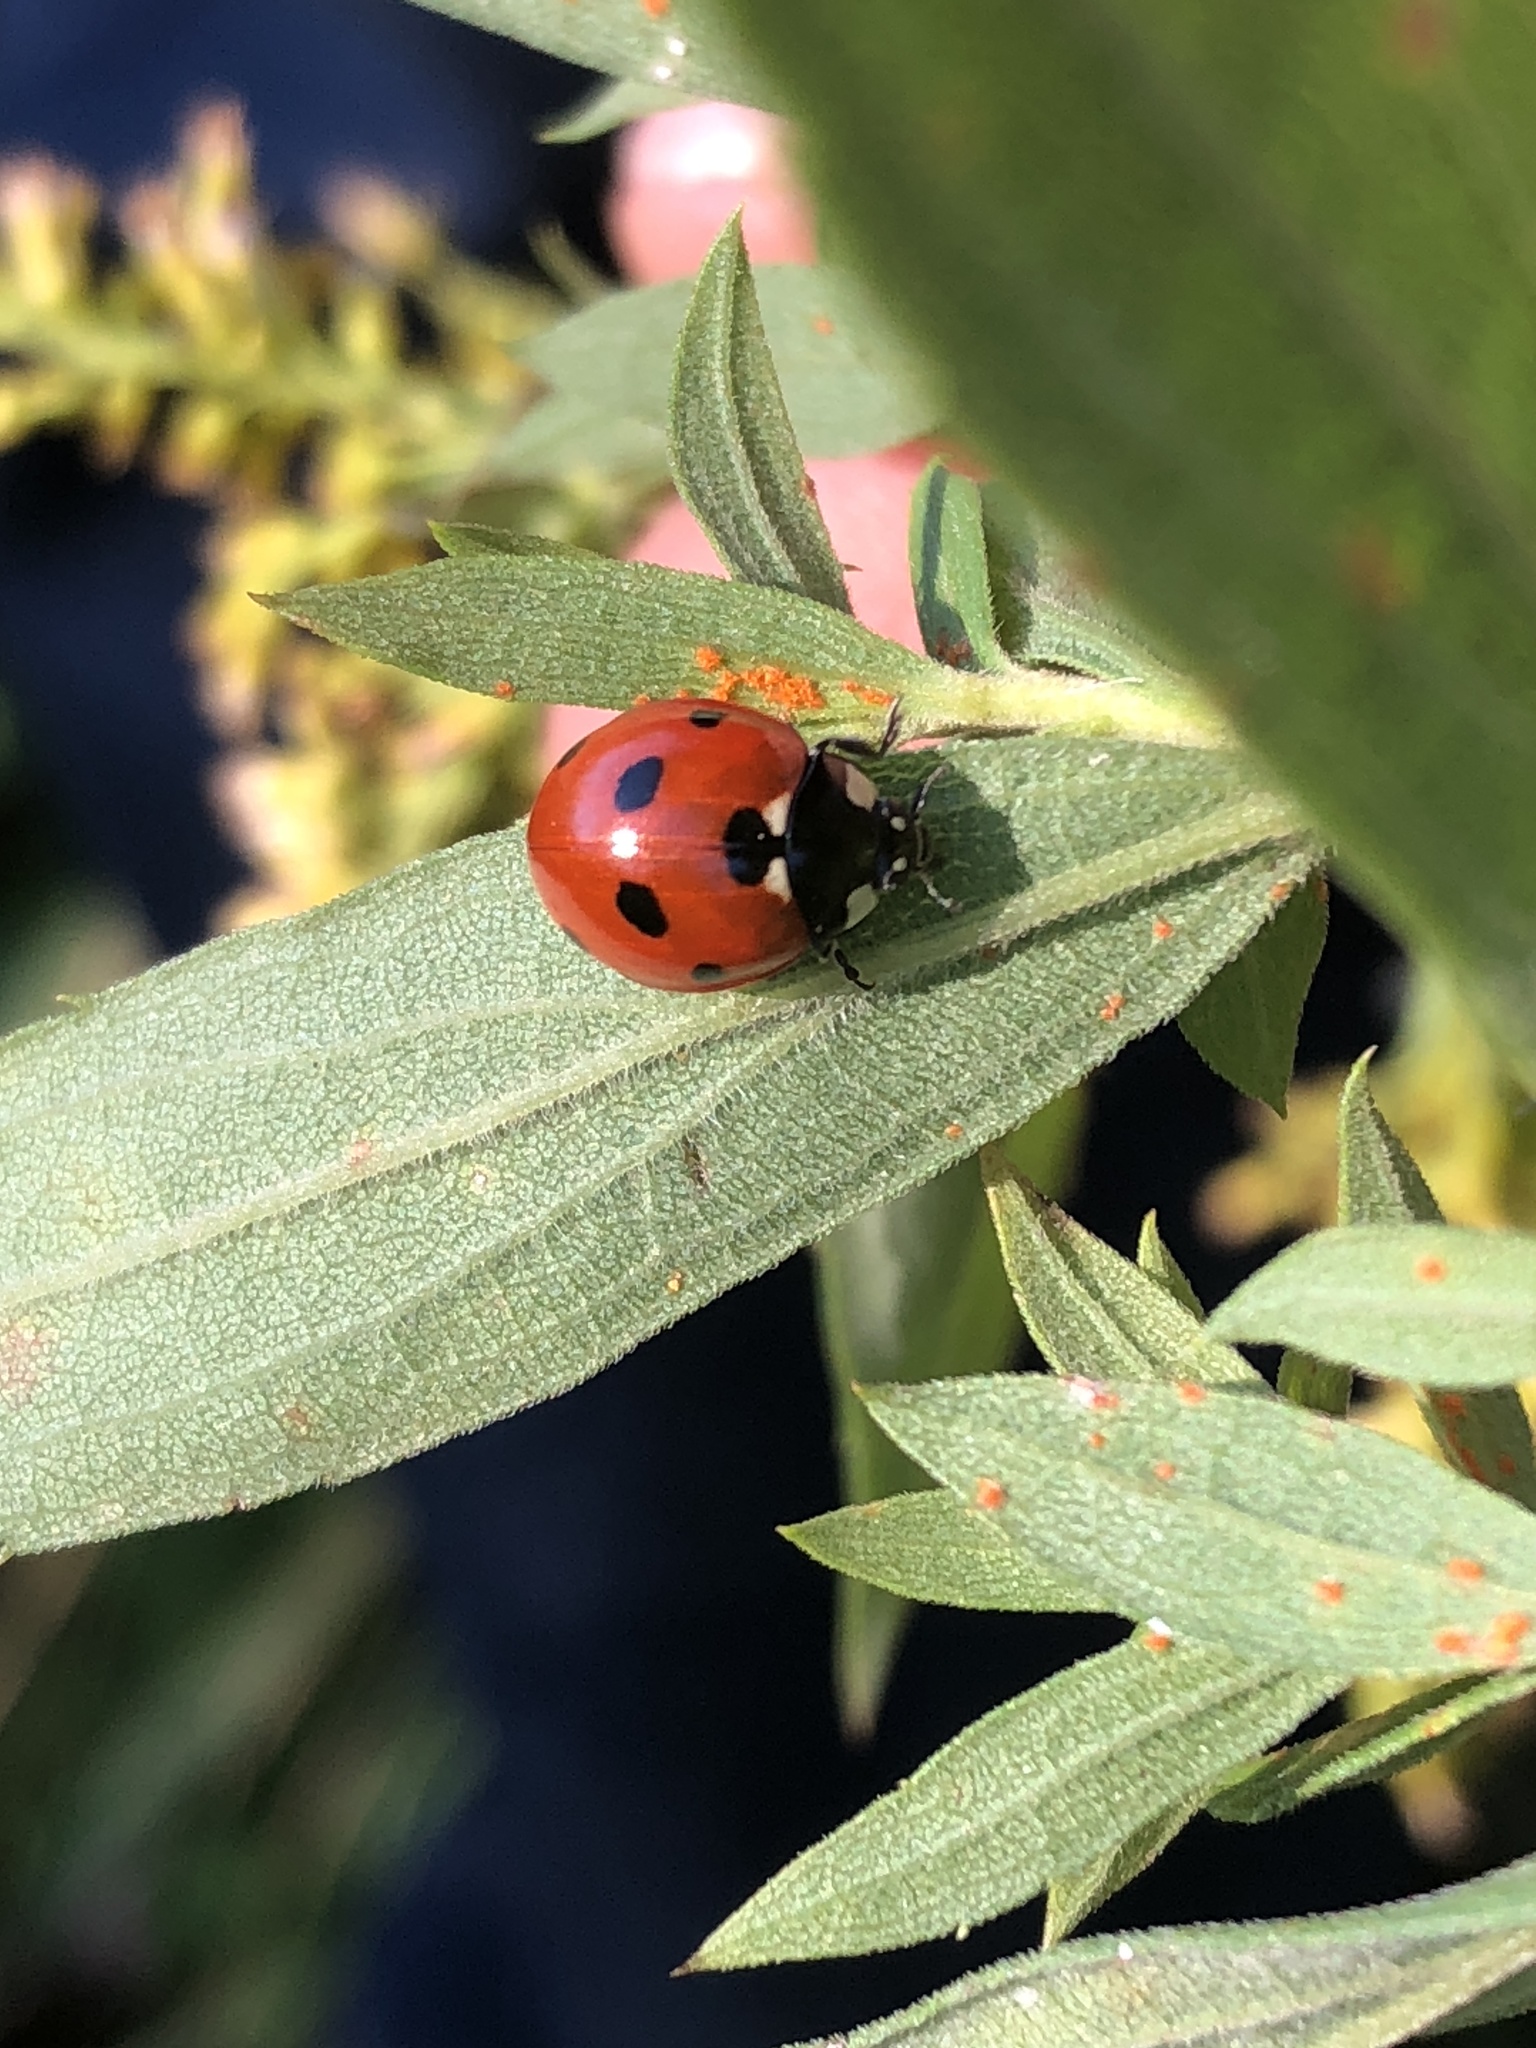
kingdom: Animalia
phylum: Arthropoda
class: Insecta
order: Coleoptera
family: Coccinellidae
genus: Coccinella
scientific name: Coccinella septempunctata
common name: Sevenspotted lady beetle
